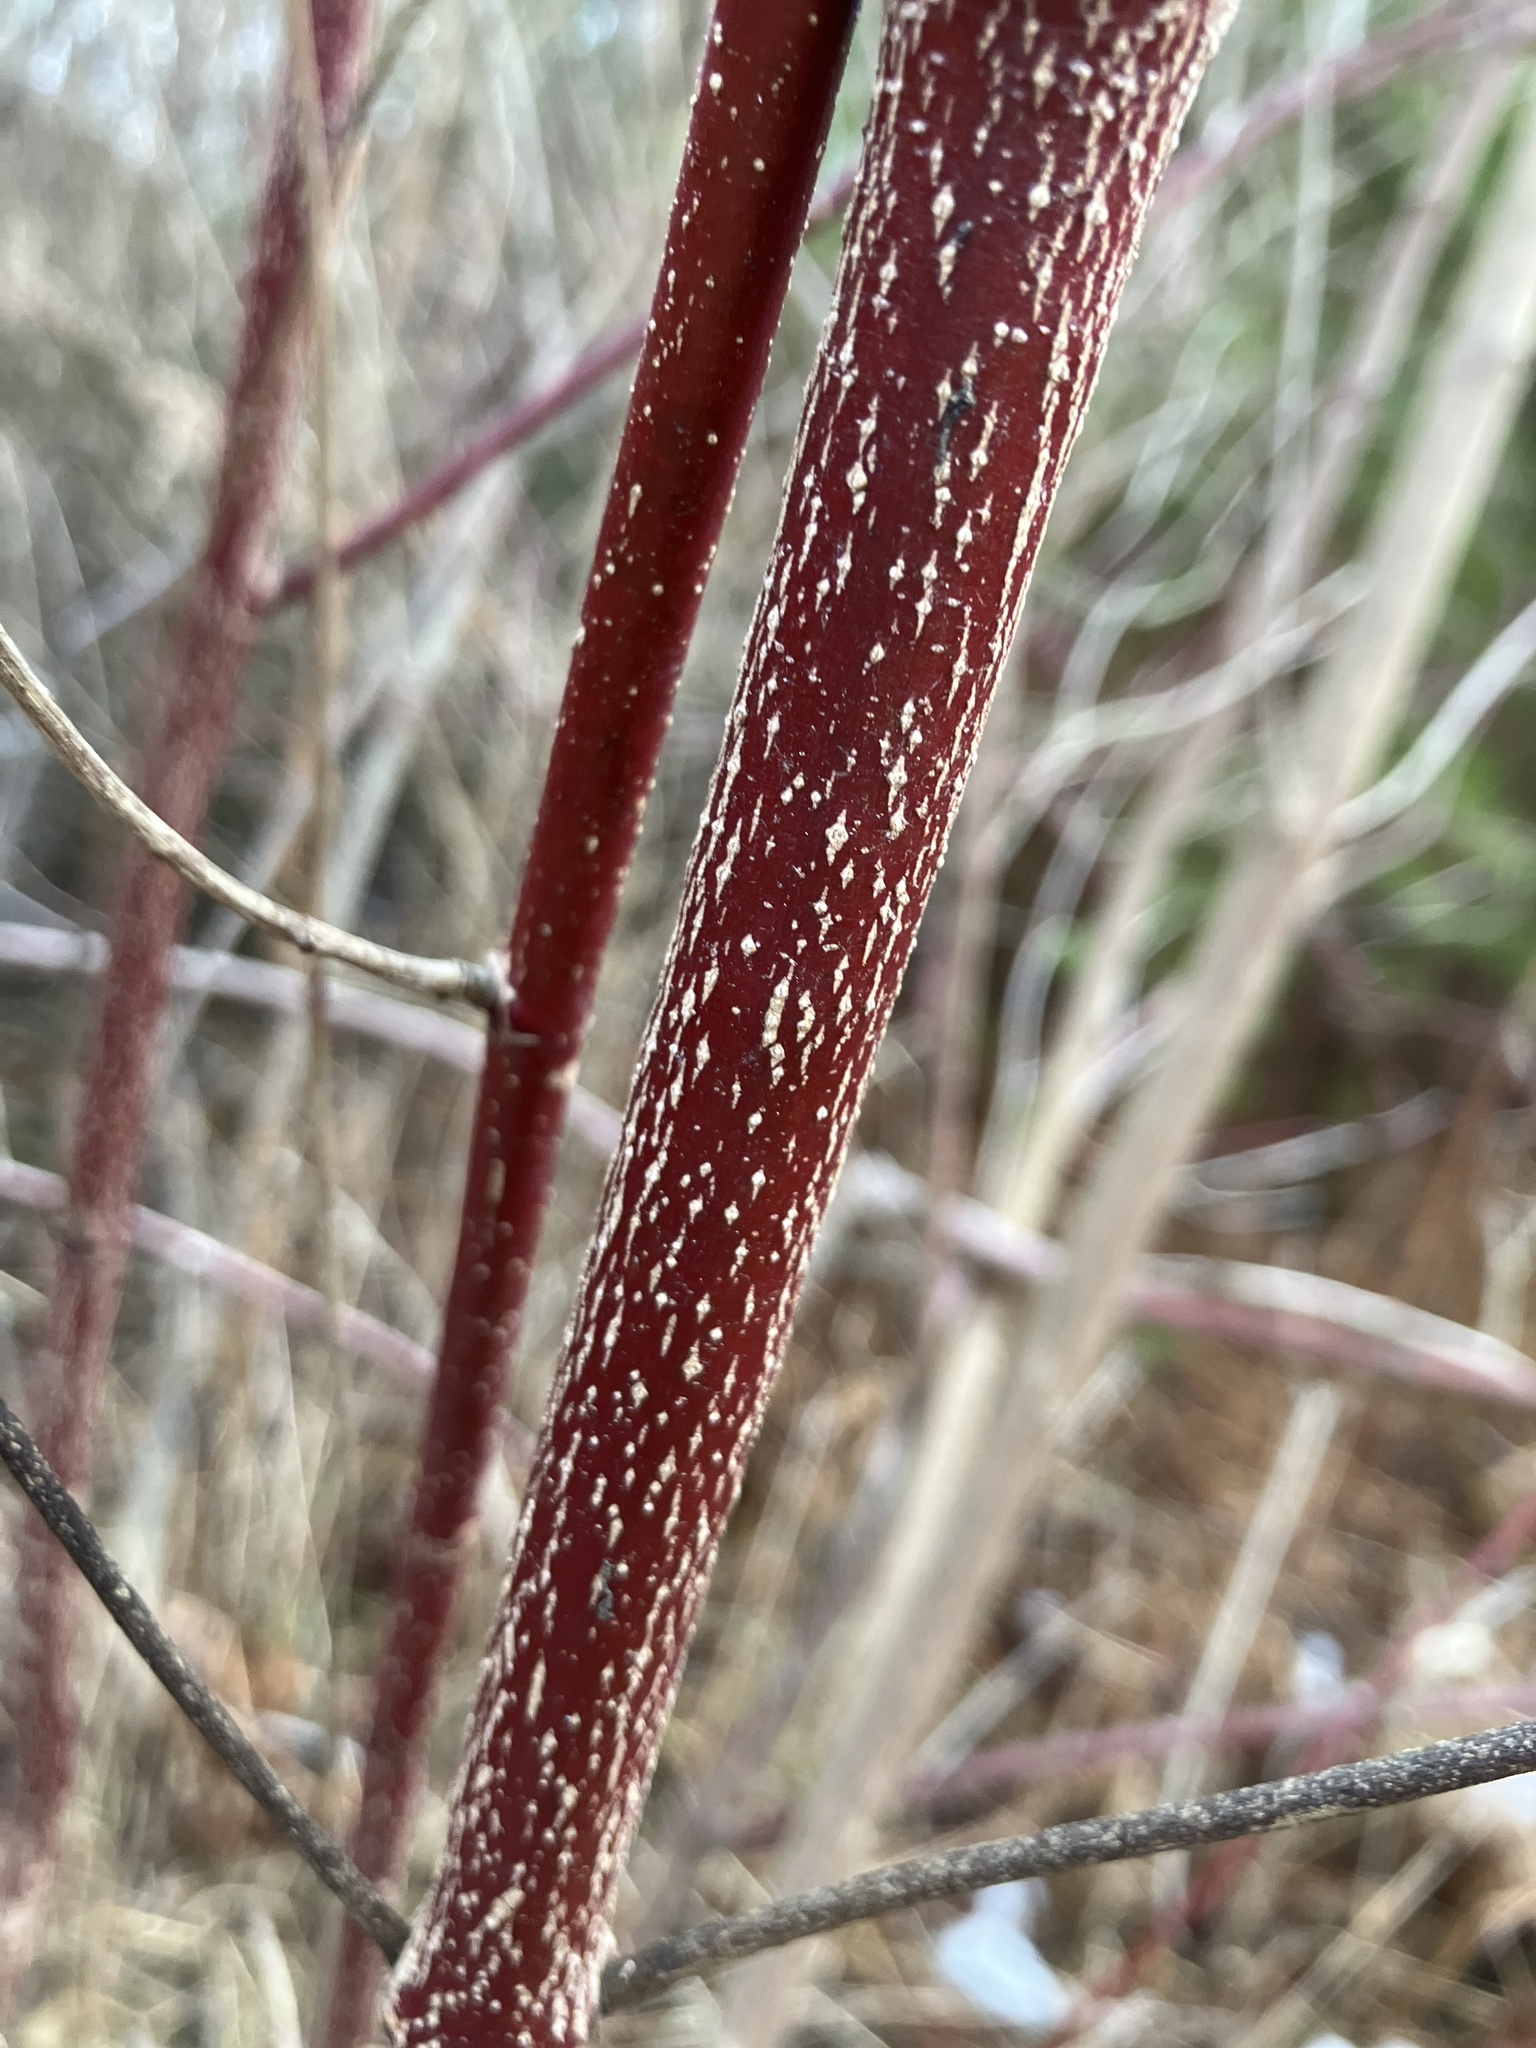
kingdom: Plantae
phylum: Tracheophyta
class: Magnoliopsida
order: Cornales
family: Cornaceae
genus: Cornus
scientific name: Cornus amomum
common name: Silky dogwood
